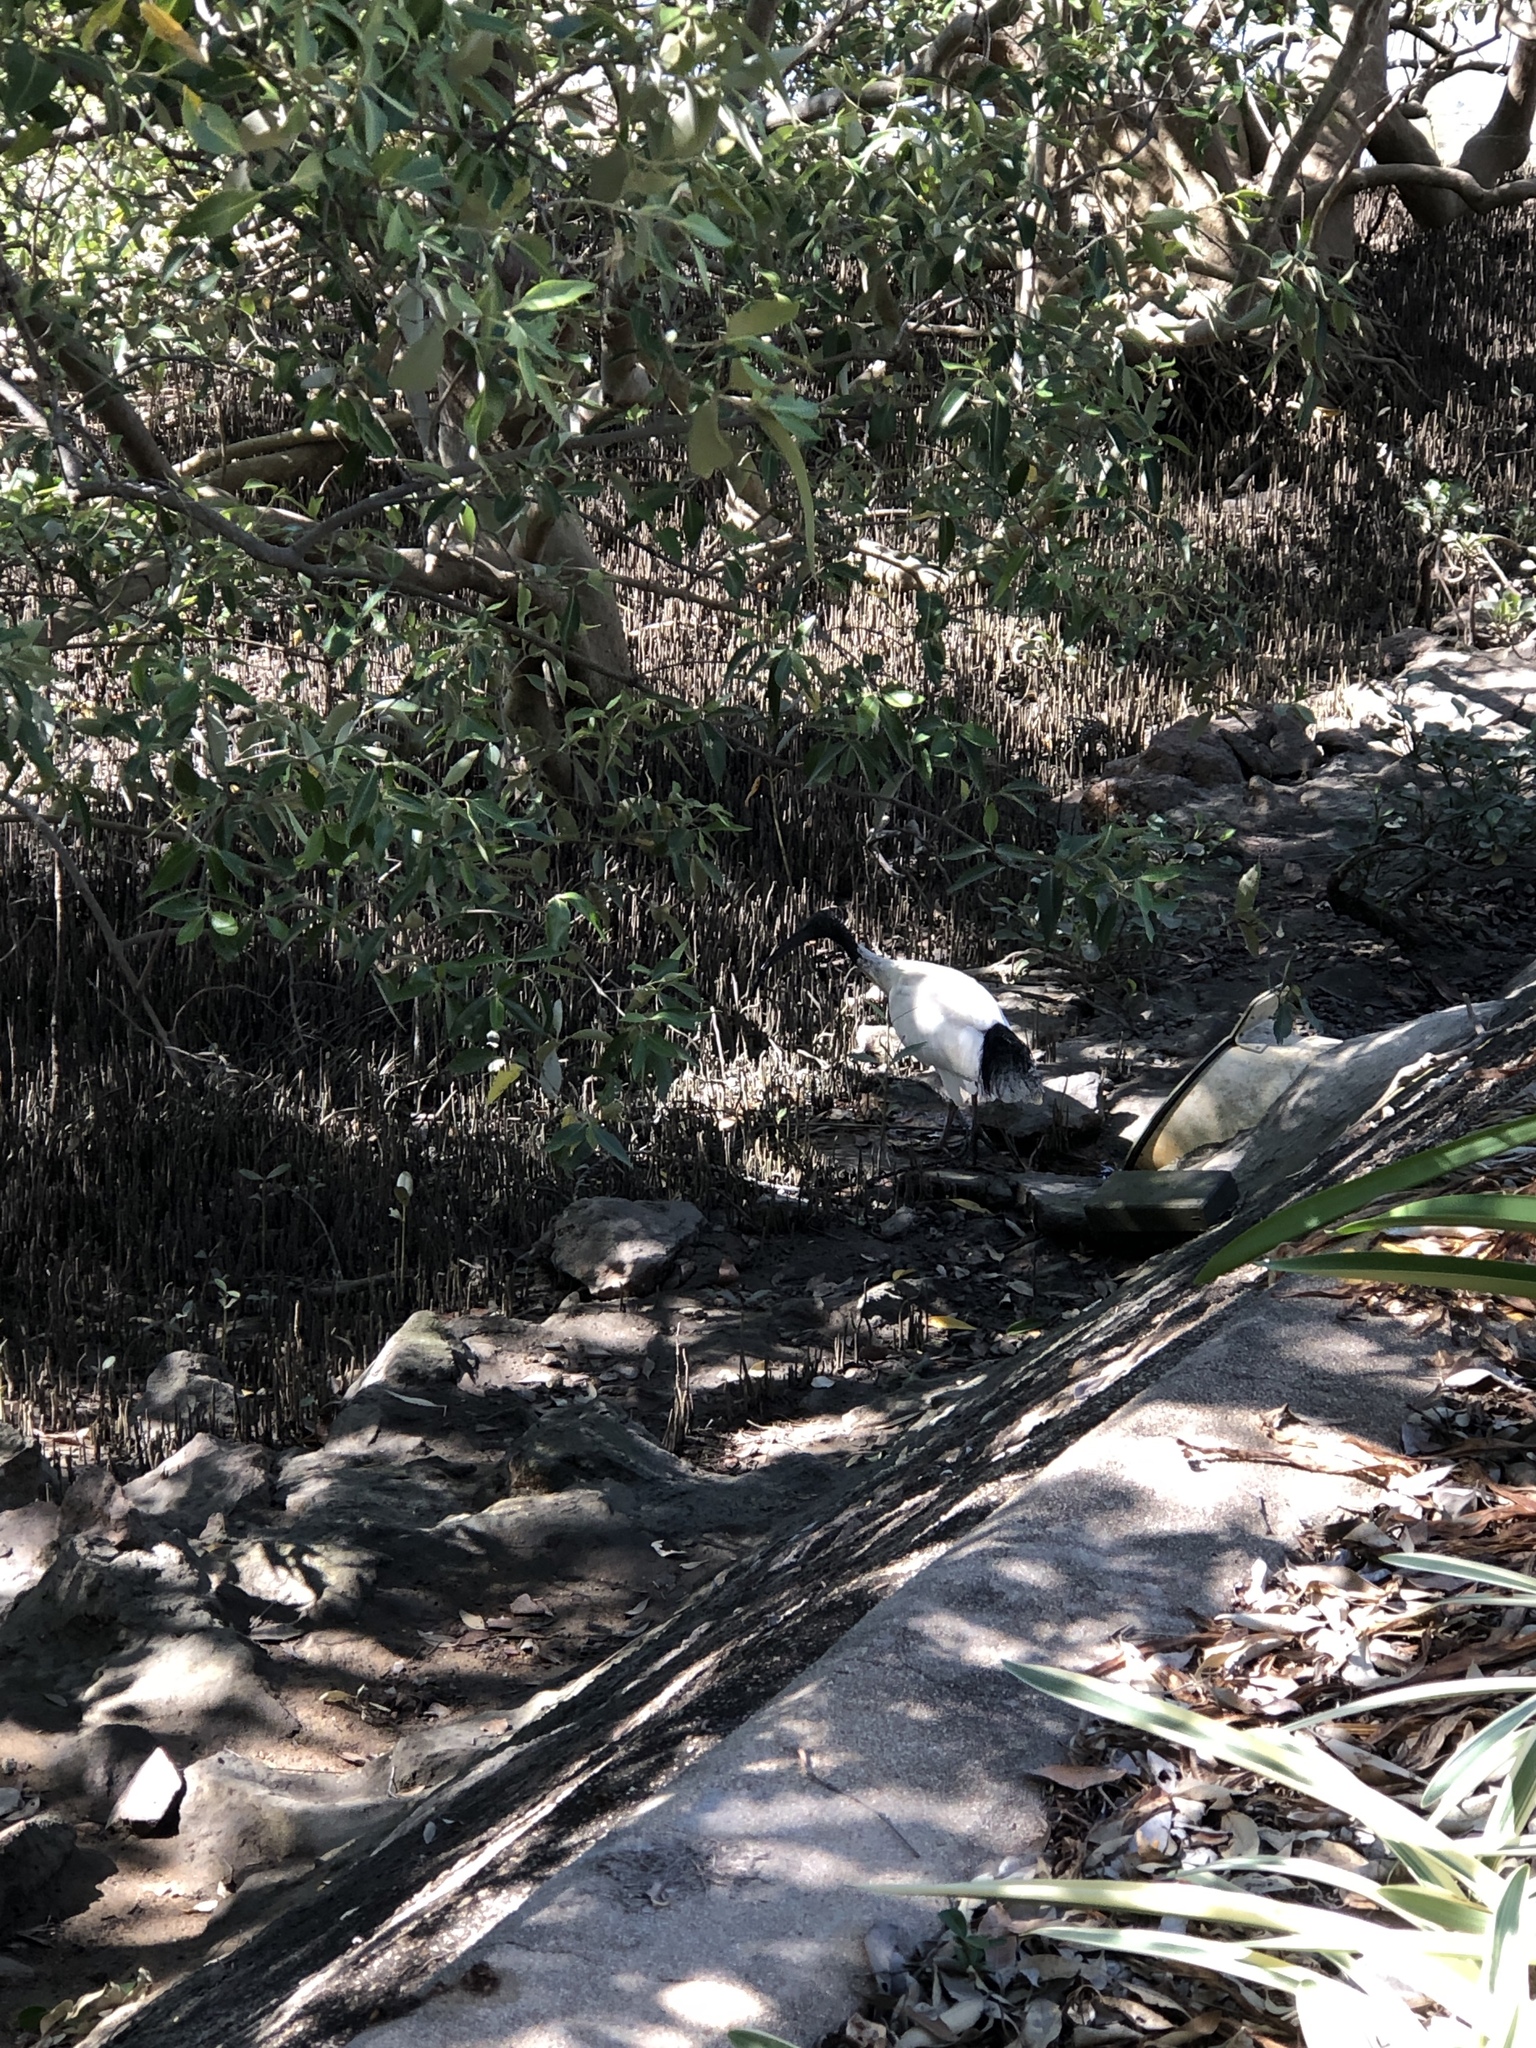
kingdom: Animalia
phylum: Chordata
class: Aves
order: Pelecaniformes
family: Threskiornithidae
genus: Threskiornis
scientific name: Threskiornis molucca
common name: Australian white ibis
